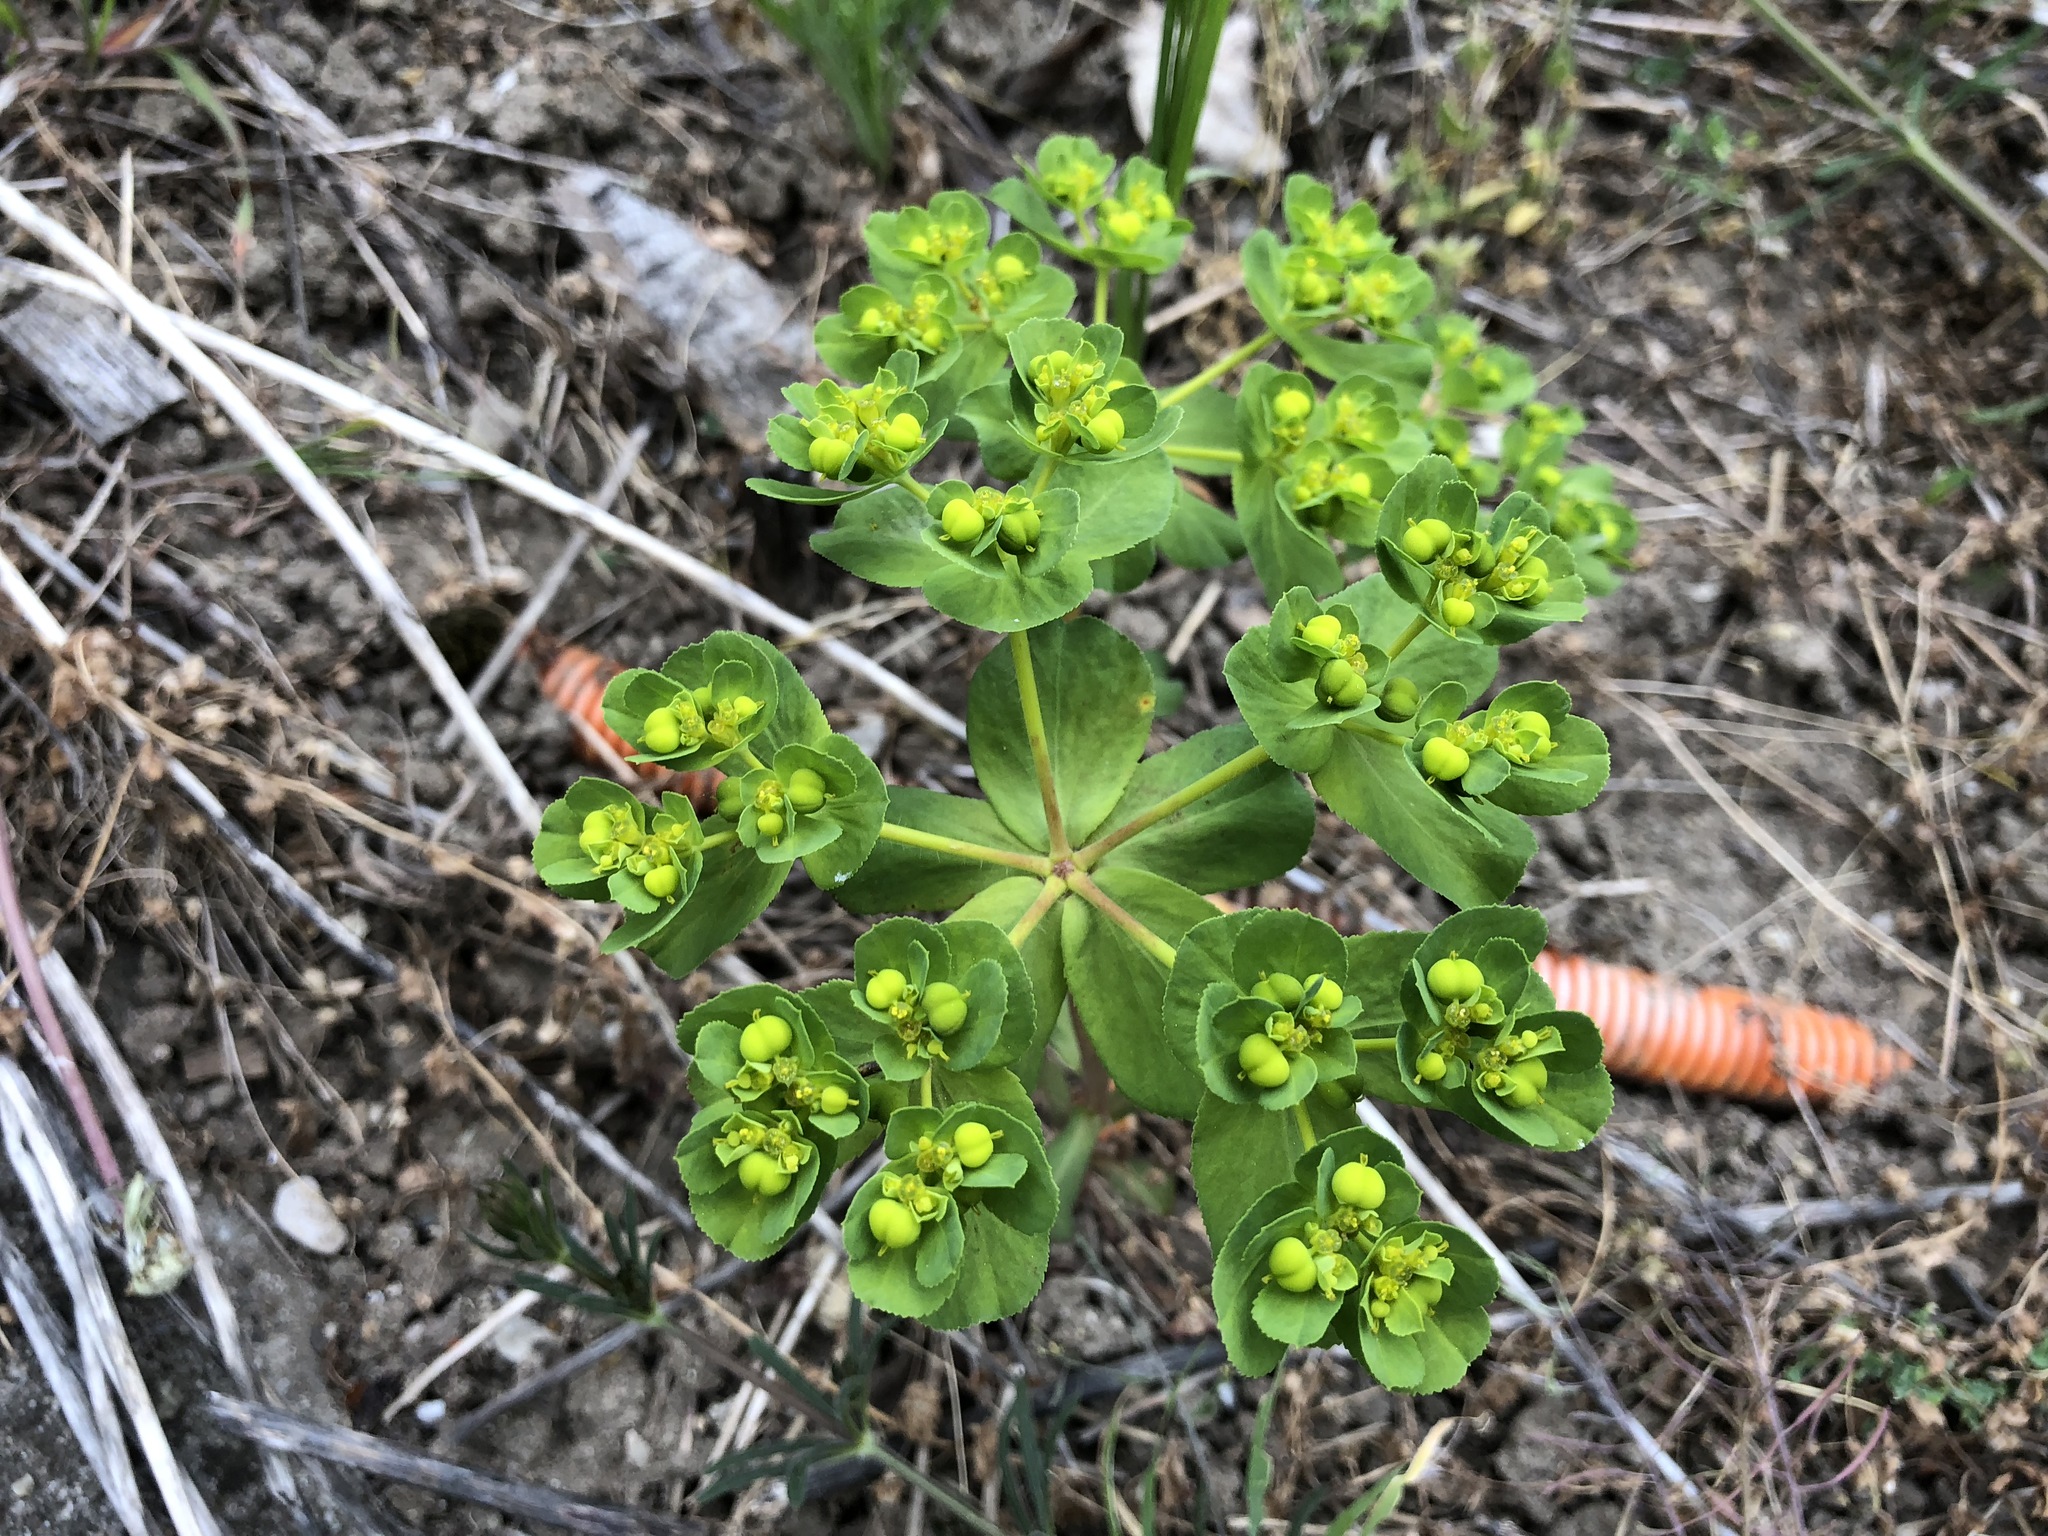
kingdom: Plantae
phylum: Tracheophyta
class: Magnoliopsida
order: Malpighiales
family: Euphorbiaceae
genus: Euphorbia
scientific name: Euphorbia helioscopia
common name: Sun spurge
